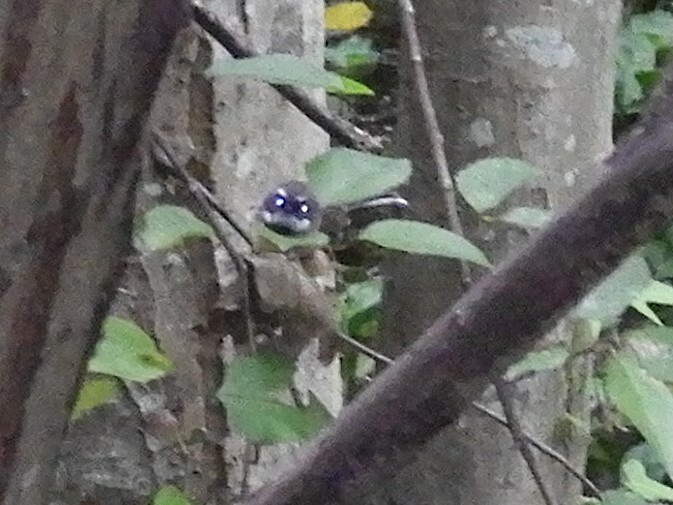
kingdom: Animalia
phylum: Chordata
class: Aves
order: Passeriformes
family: Rhipiduridae
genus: Rhipidura
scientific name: Rhipidura fuliginosa
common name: New zealand fantail
